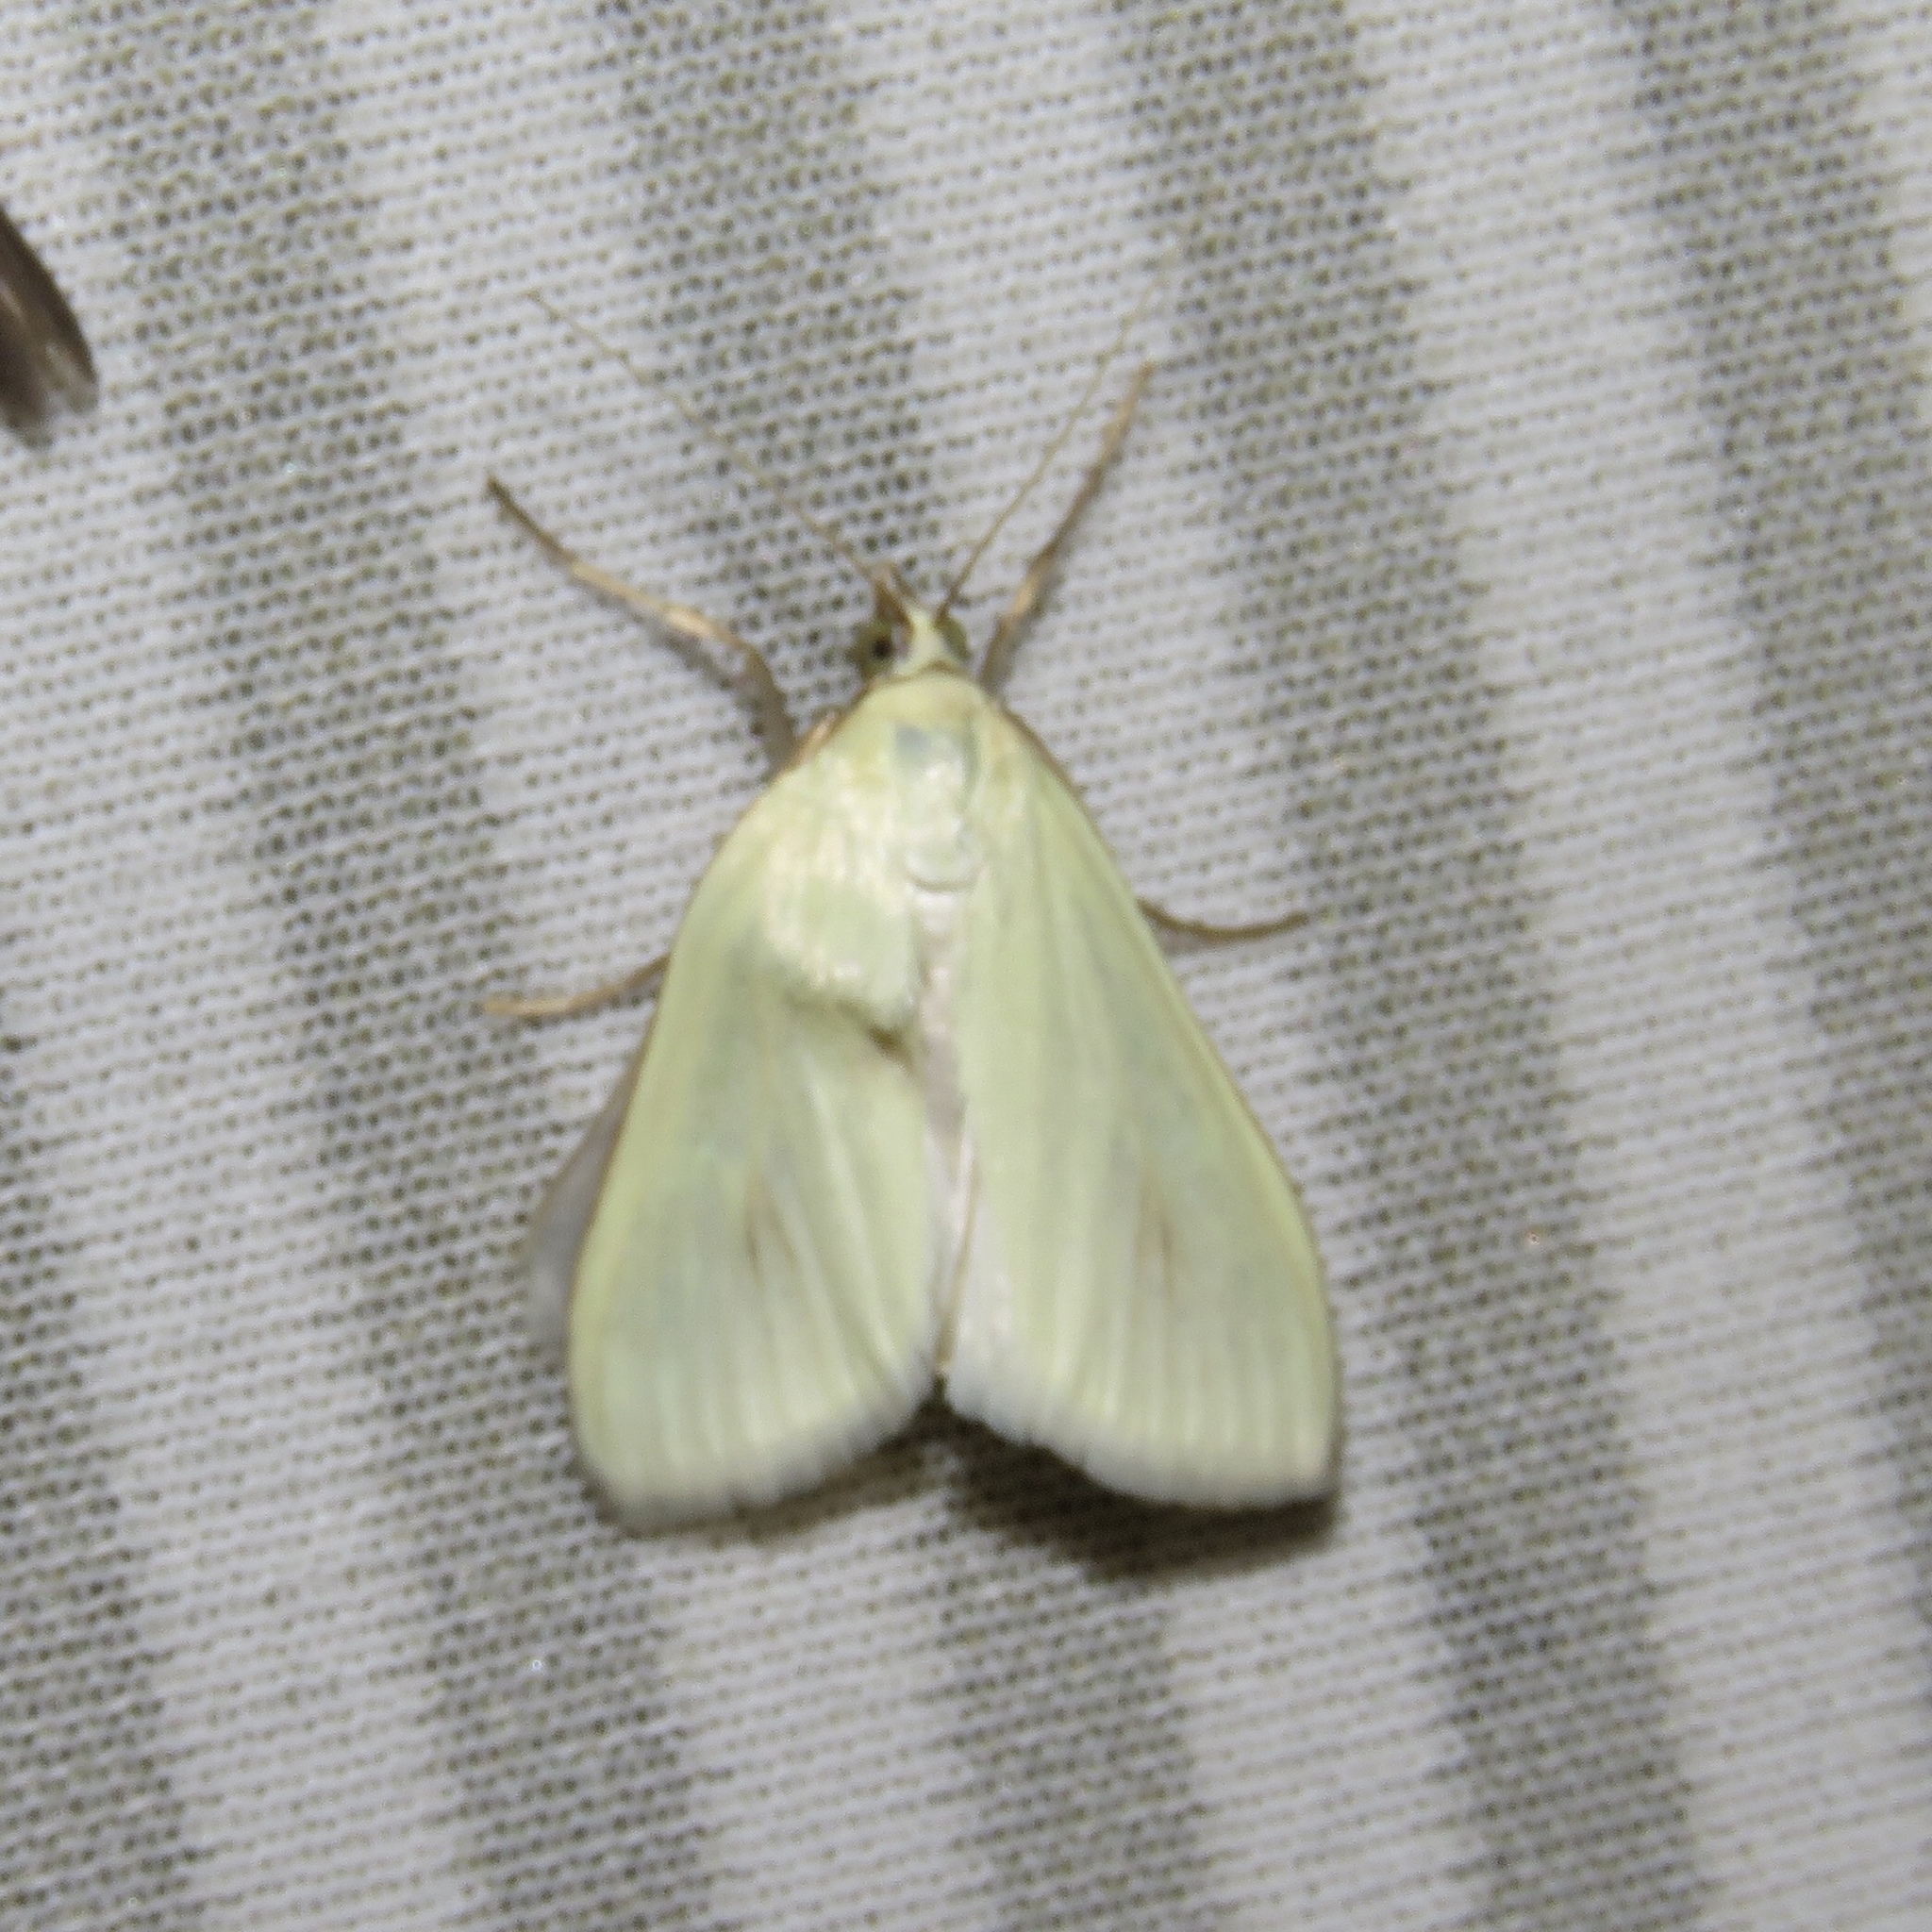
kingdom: Animalia
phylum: Arthropoda
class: Insecta
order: Lepidoptera
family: Crambidae
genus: Sitochroa
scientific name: Sitochroa palealis
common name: Greenish-yellow sitochroa moth
